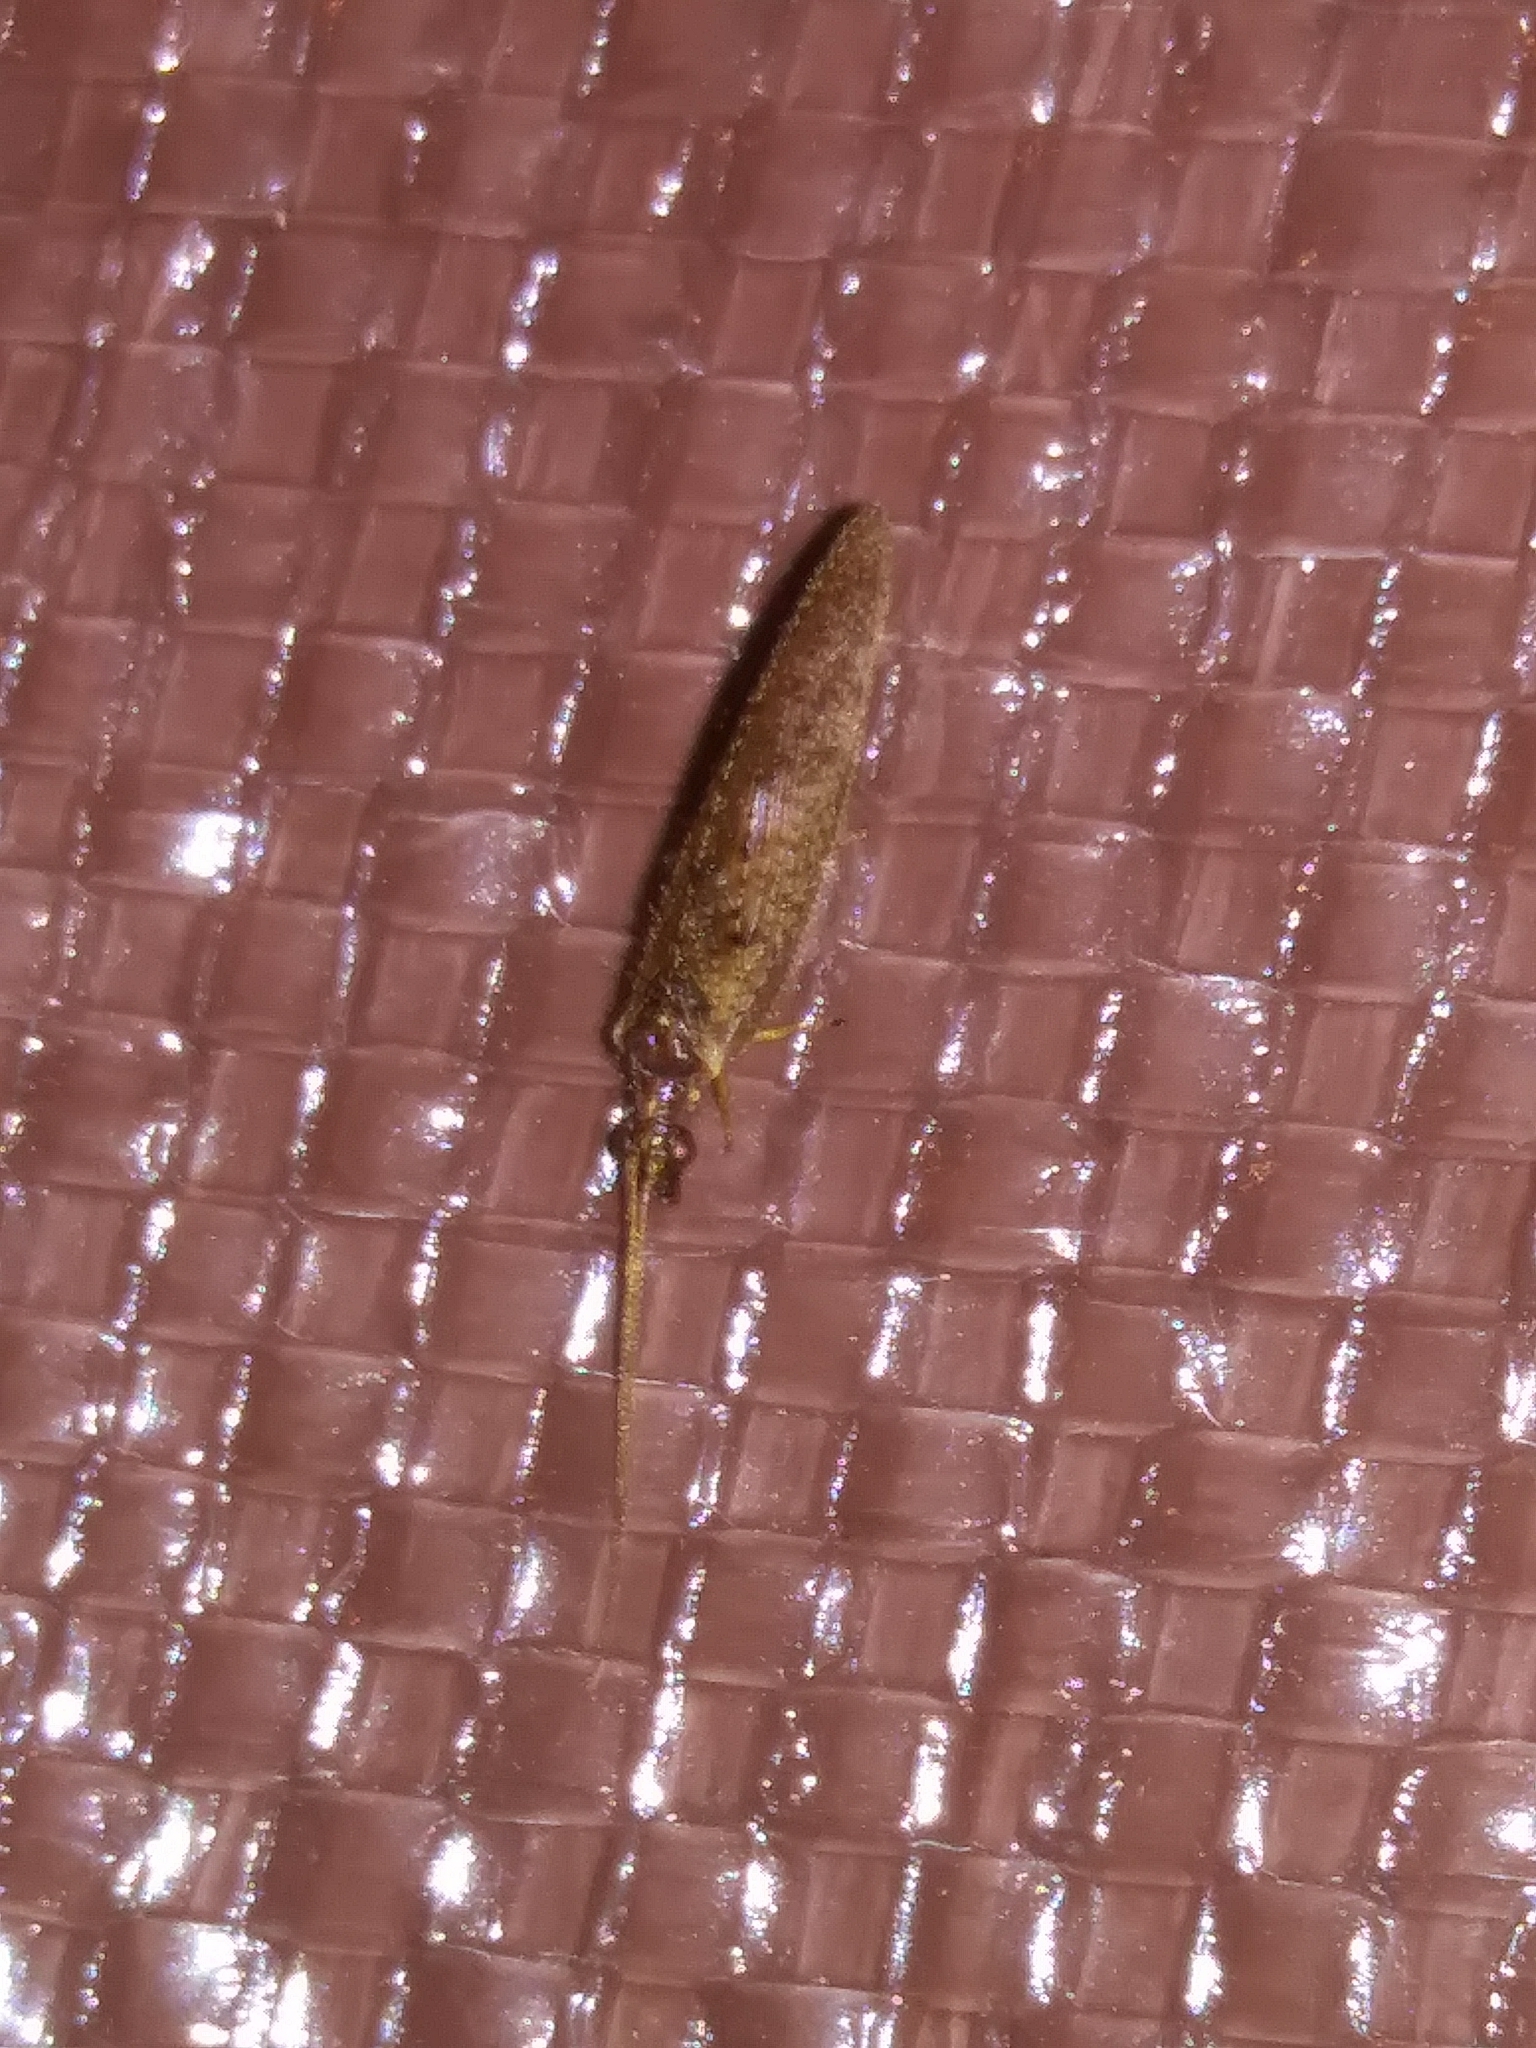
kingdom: Animalia
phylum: Arthropoda
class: Insecta
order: Neuroptera
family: Hemerobiidae
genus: Hemerobius
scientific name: Hemerobius stigma
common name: Brown pine lacewing
